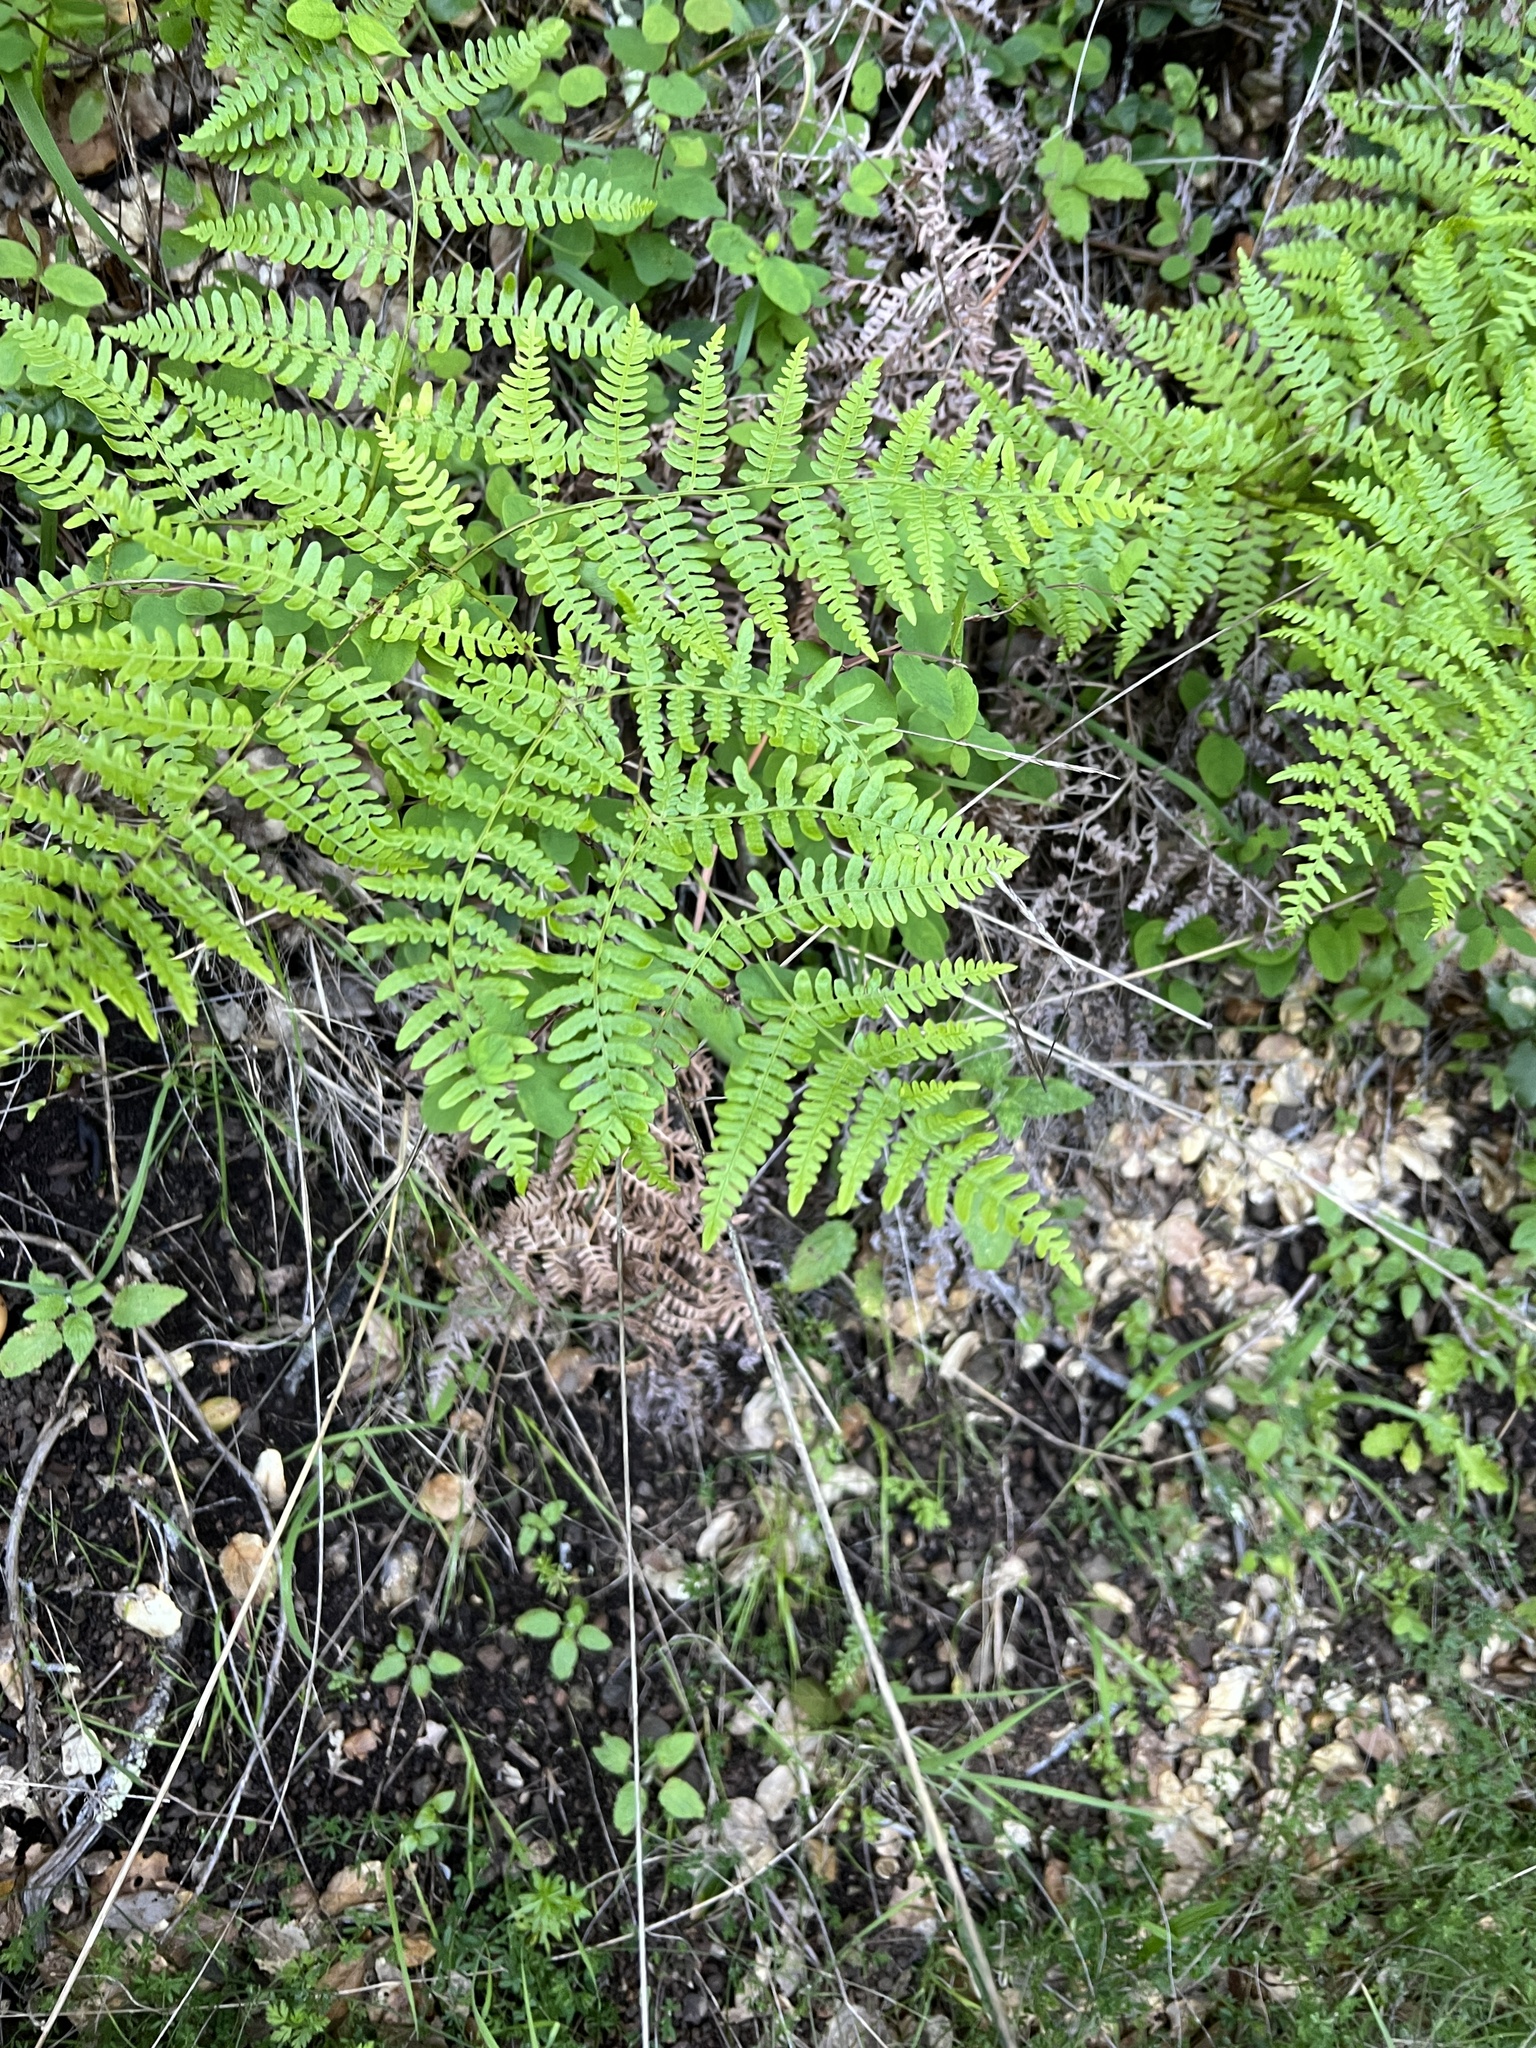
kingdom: Plantae
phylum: Tracheophyta
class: Polypodiopsida
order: Polypodiales
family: Dennstaedtiaceae
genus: Pteridium
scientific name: Pteridium aquilinum
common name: Bracken
